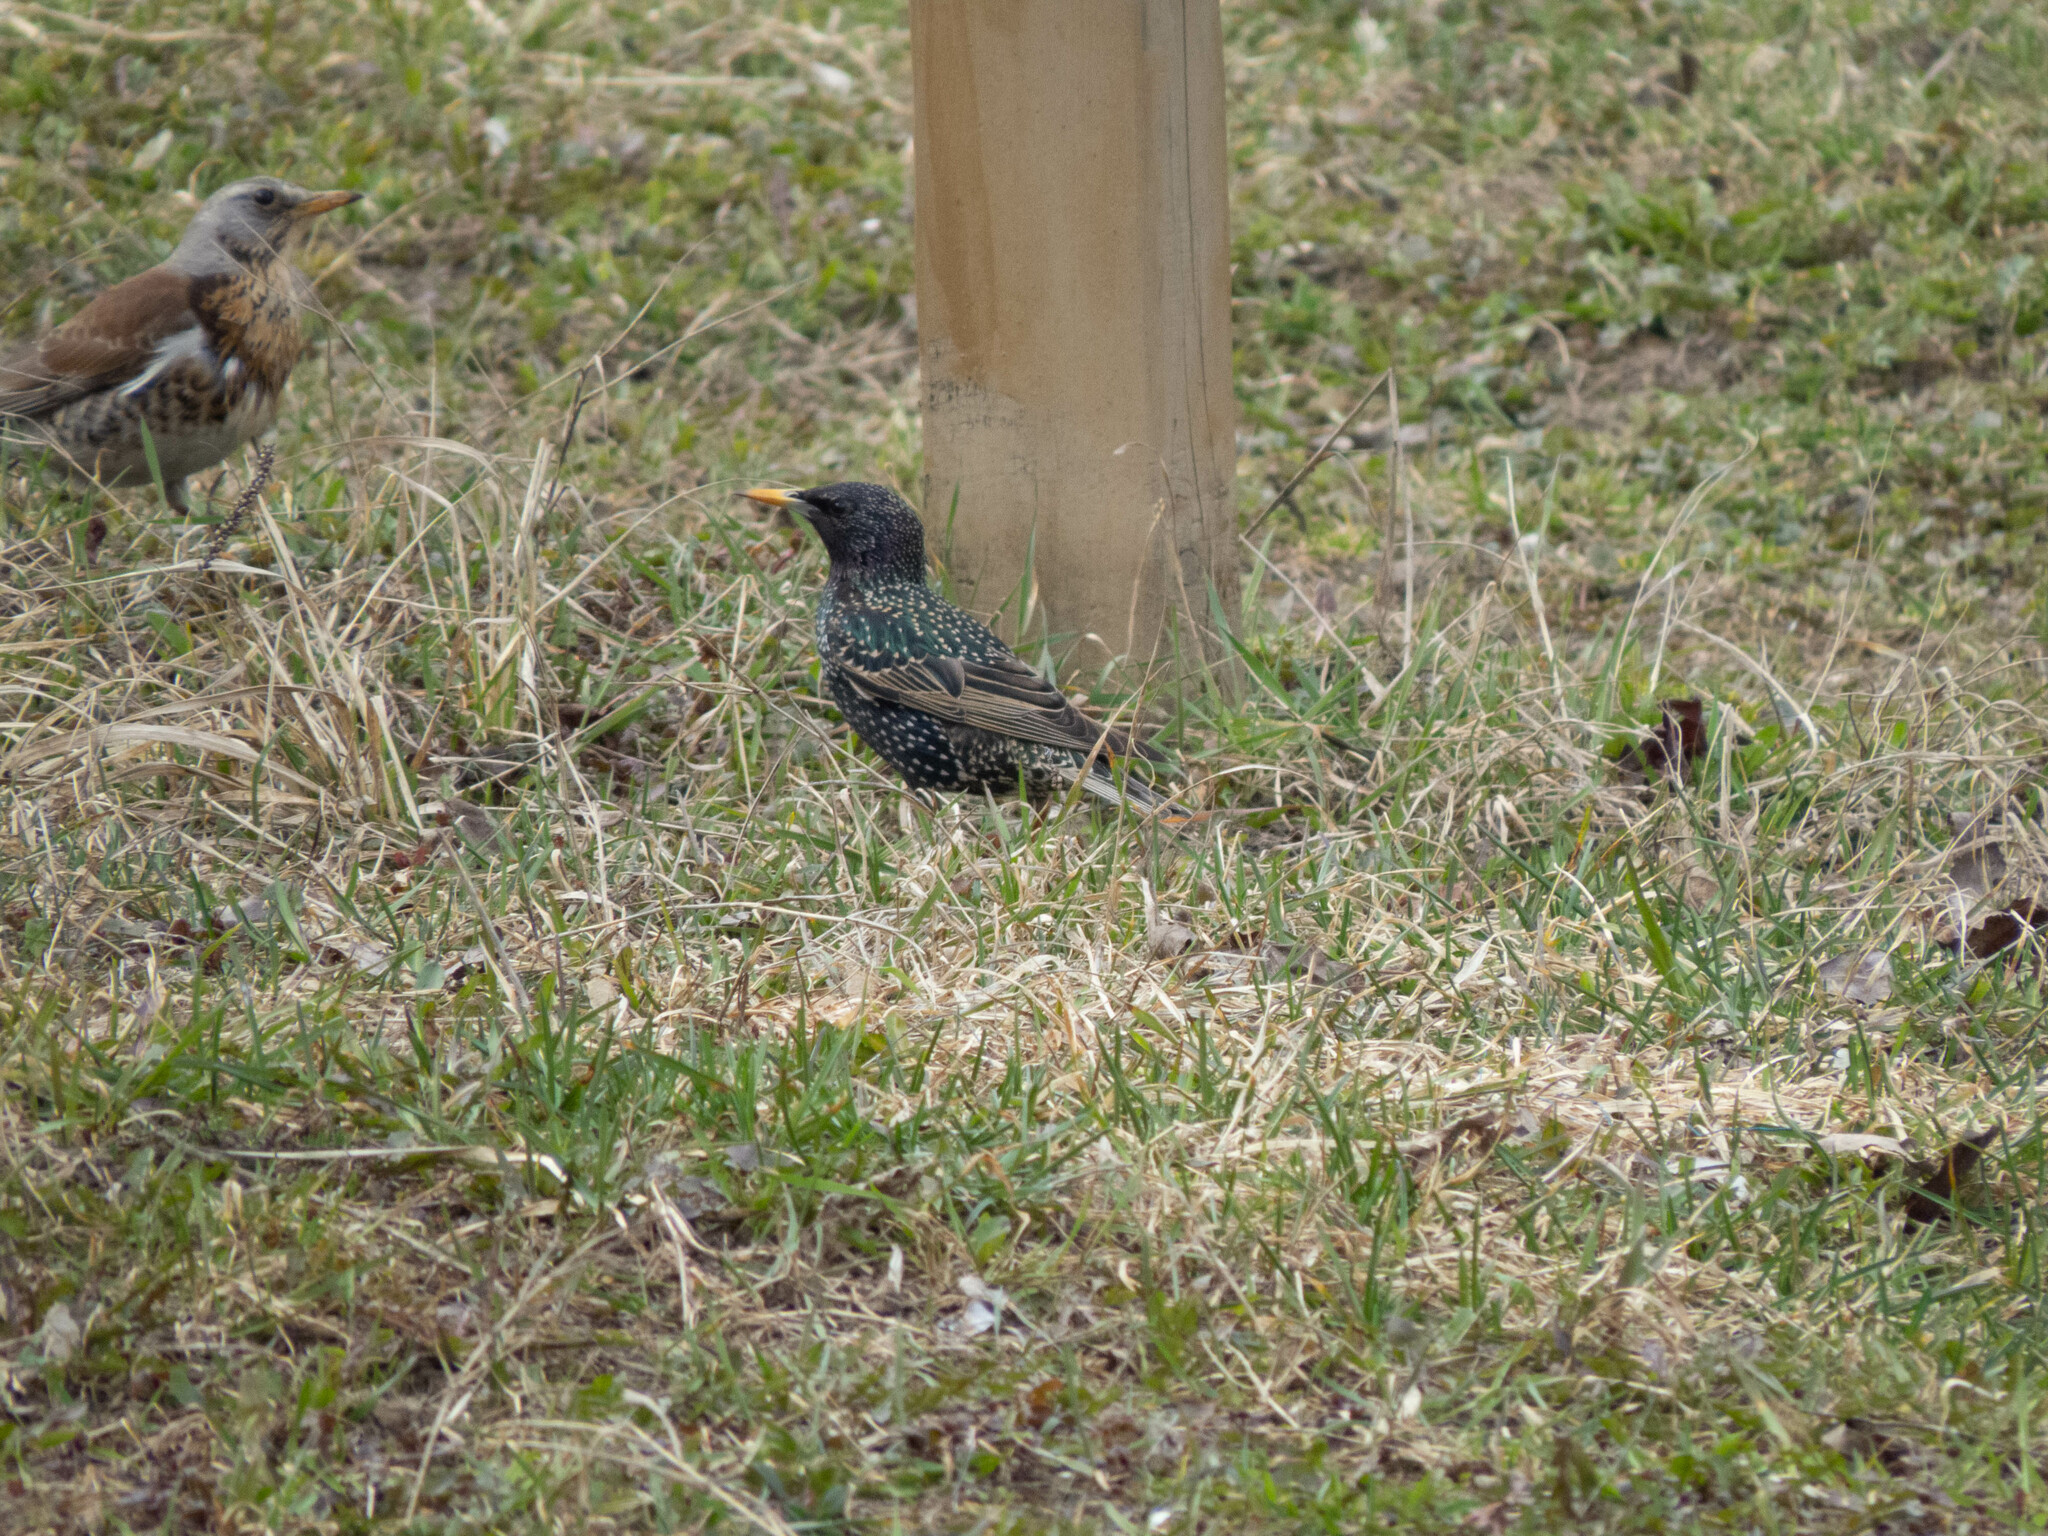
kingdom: Animalia
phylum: Chordata
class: Aves
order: Passeriformes
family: Sturnidae
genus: Sturnus
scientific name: Sturnus vulgaris
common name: Common starling
